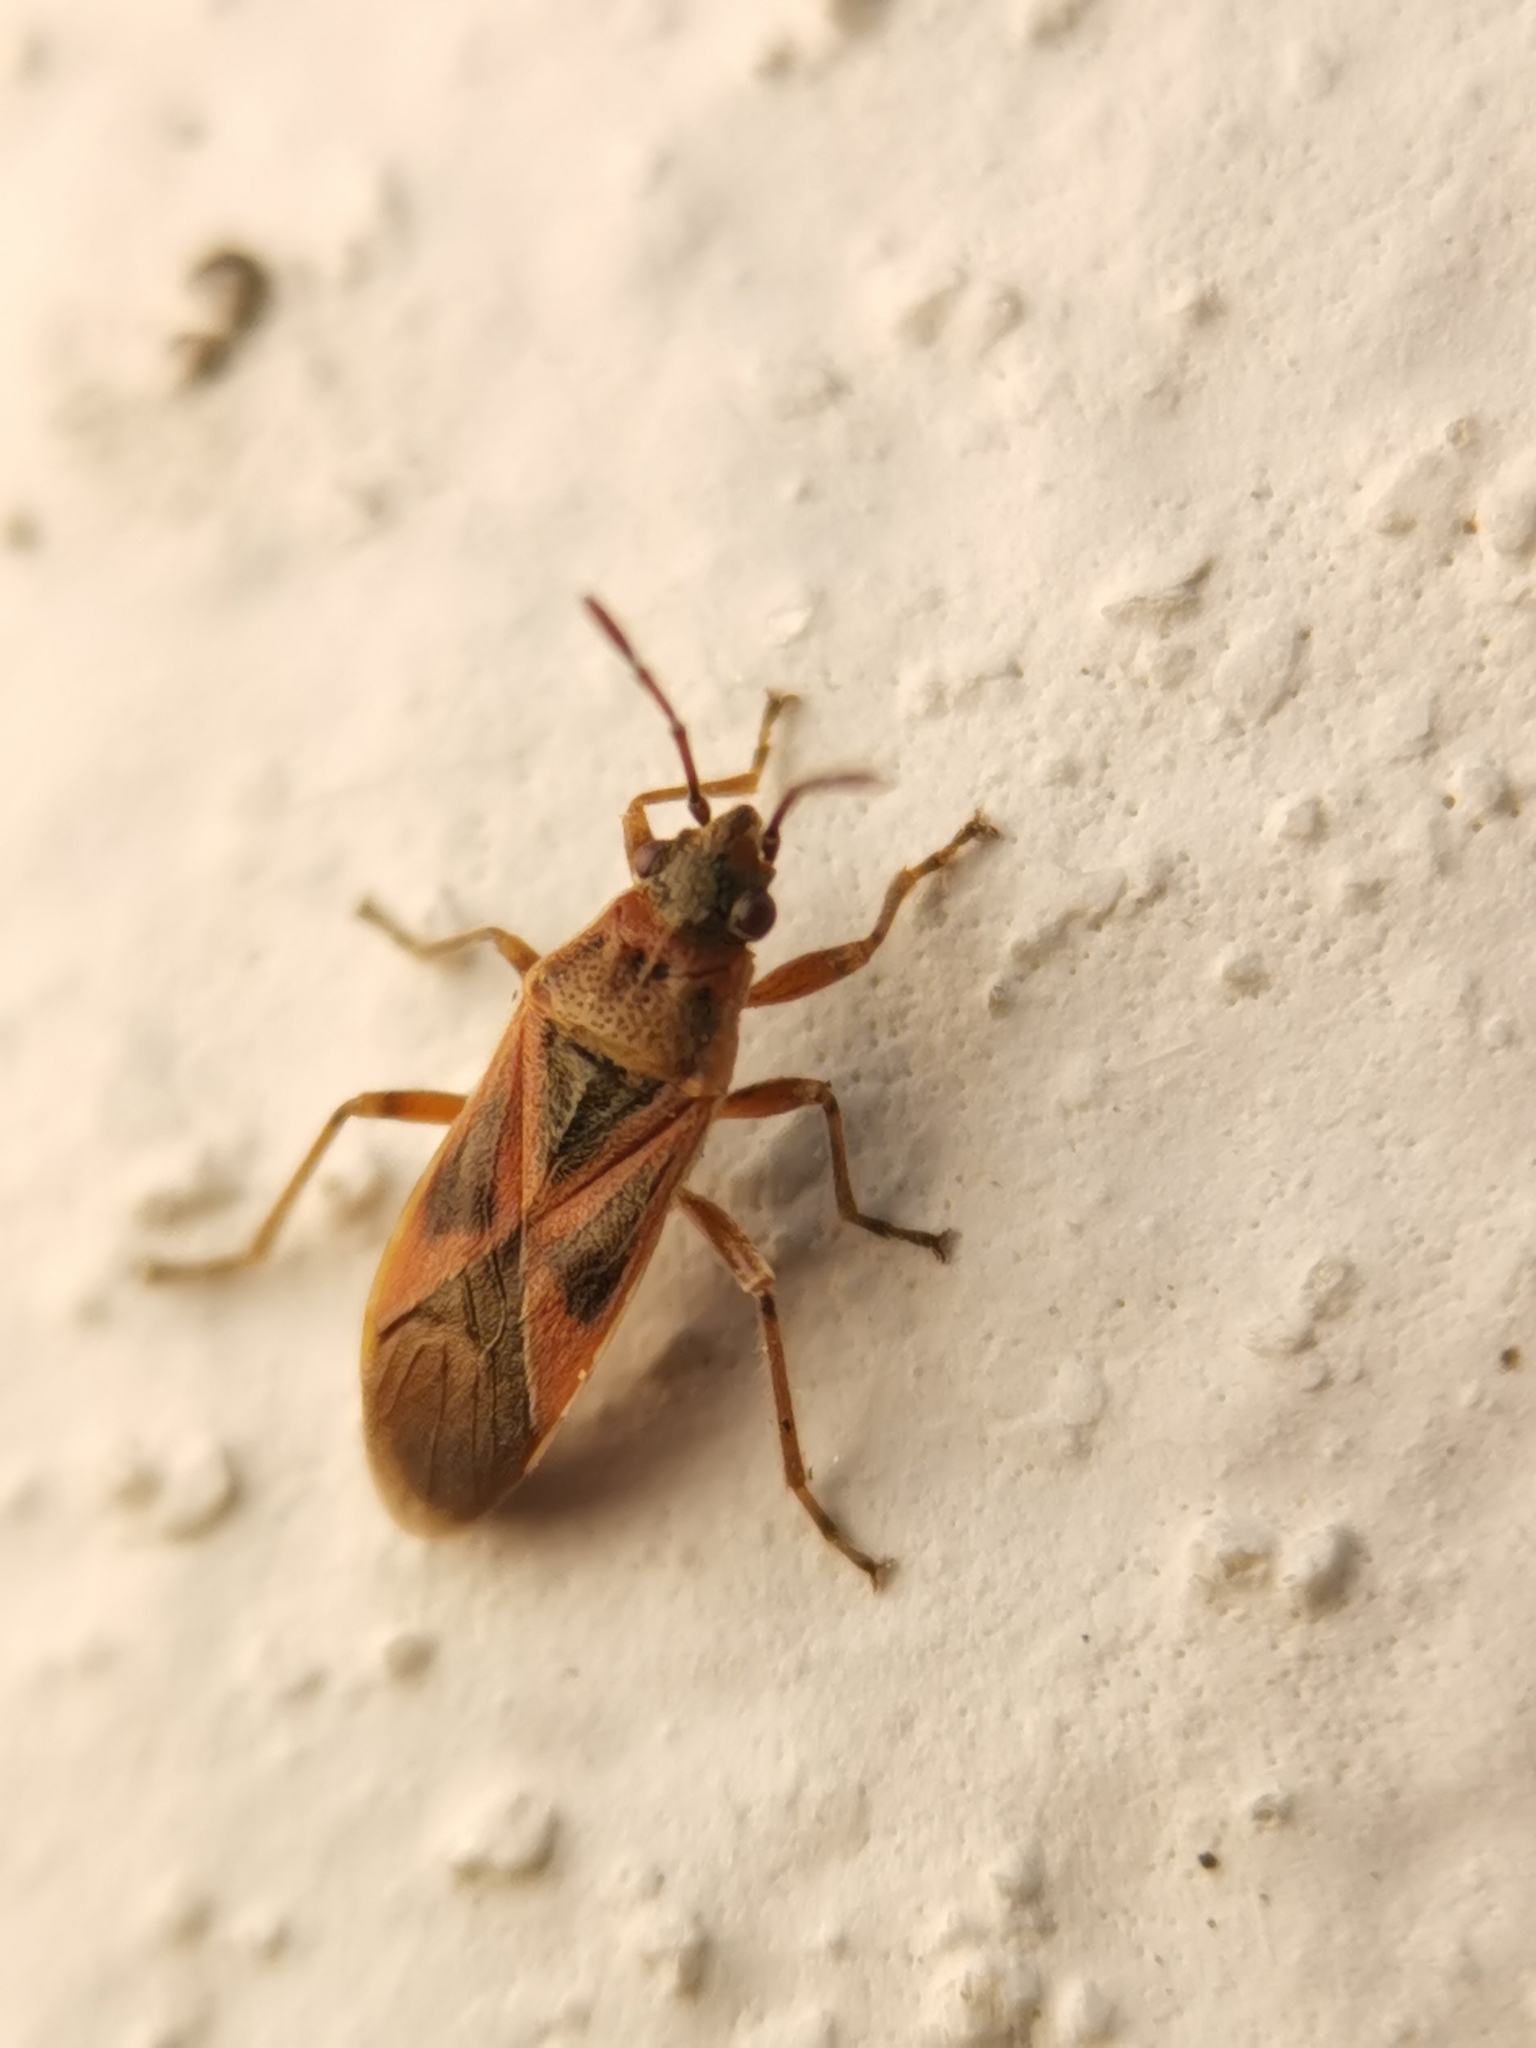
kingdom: Animalia
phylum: Arthropoda
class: Insecta
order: Hemiptera
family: Lygaeidae
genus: Arocatus
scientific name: Arocatus roeselii
